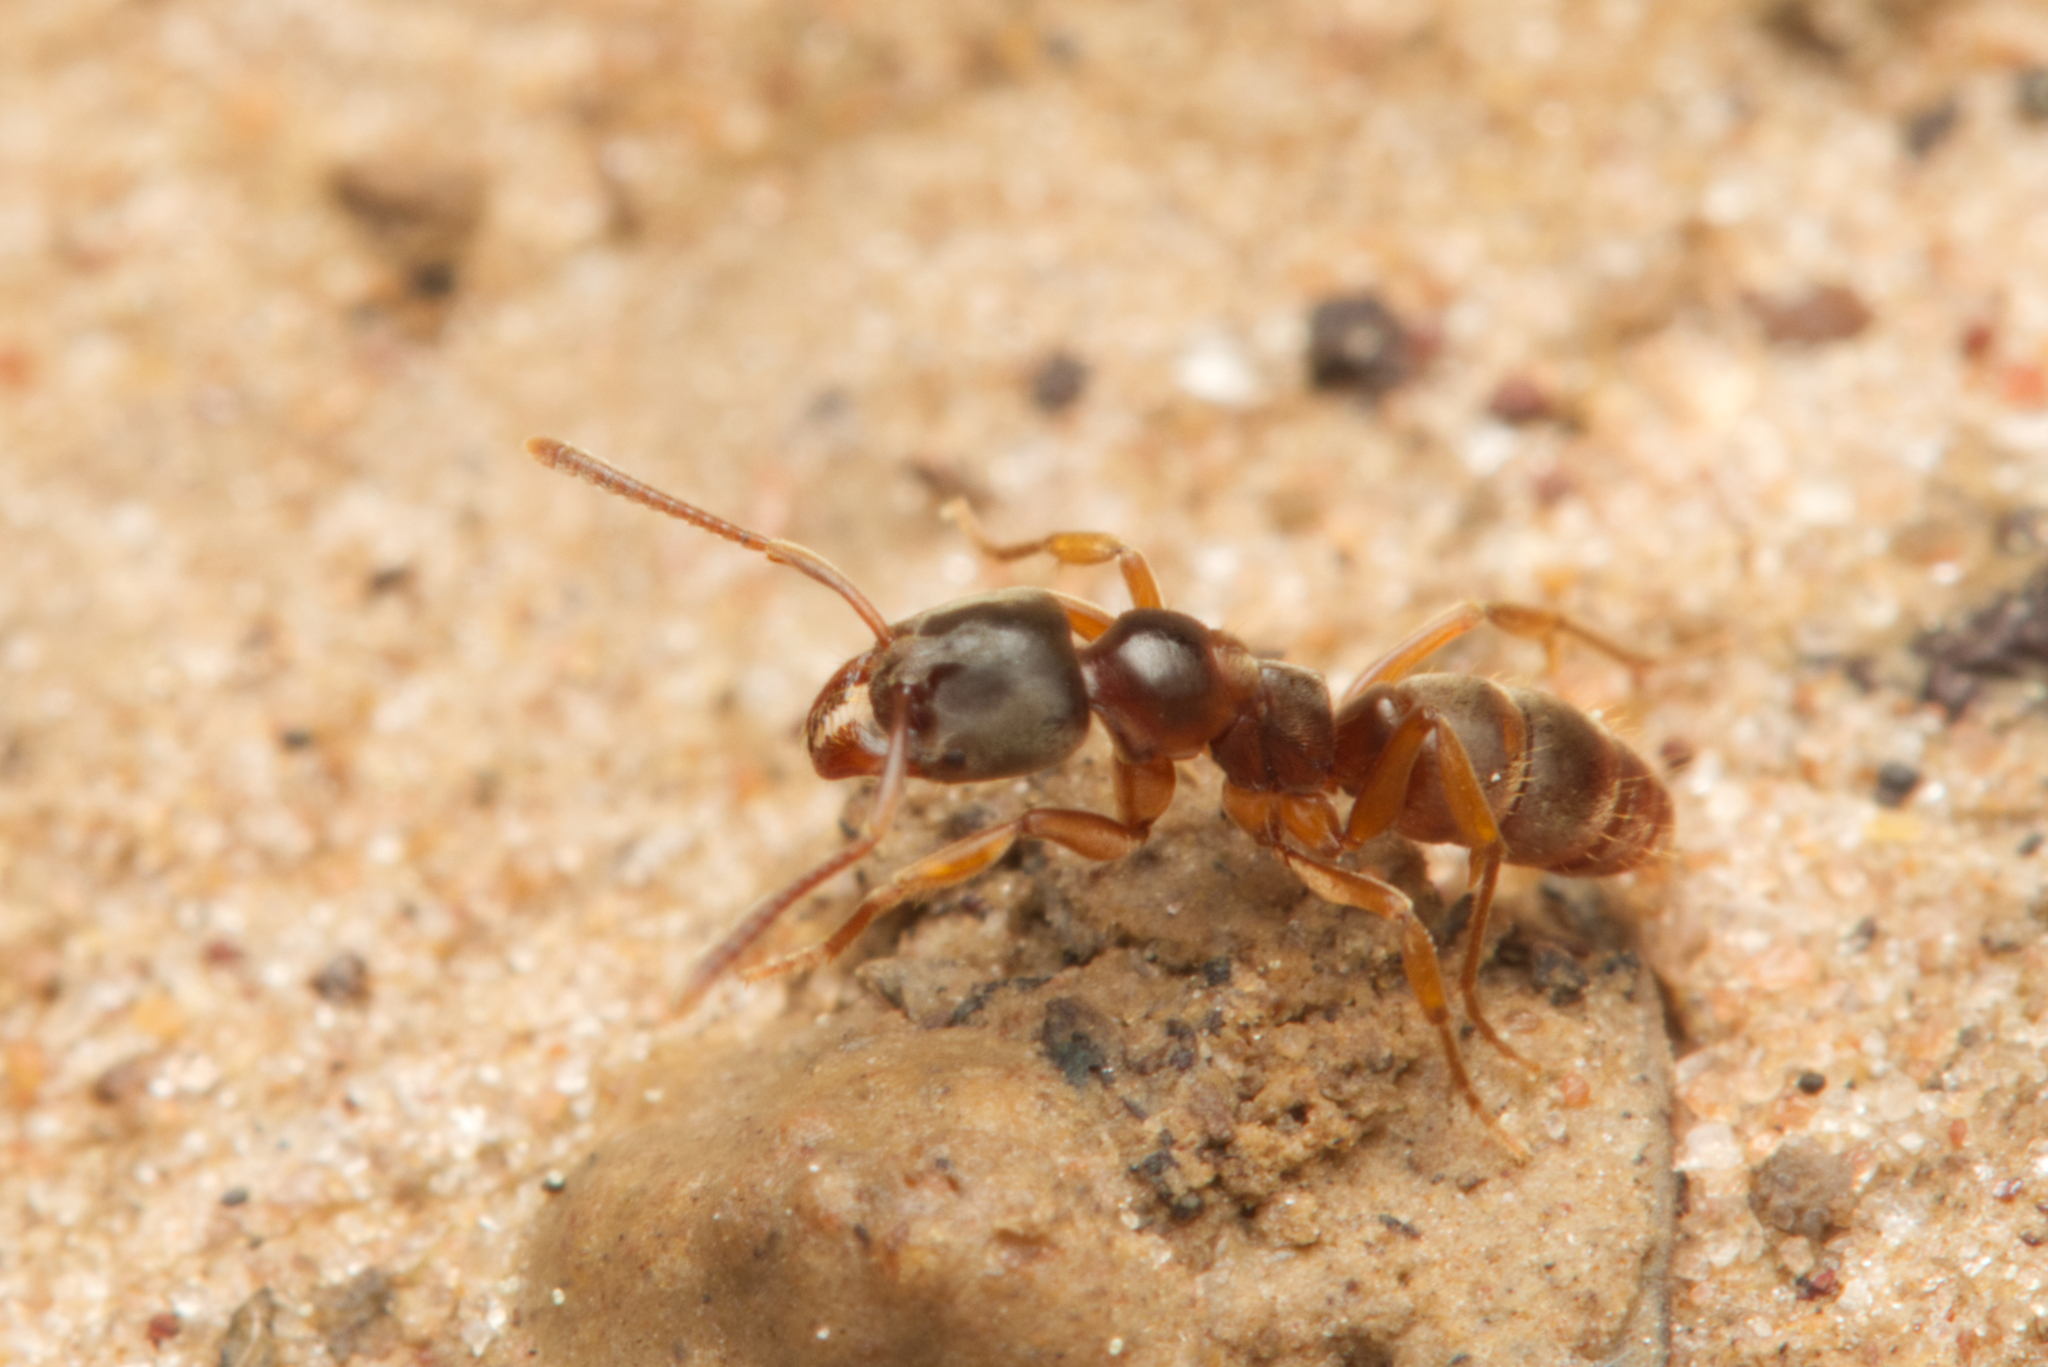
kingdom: Animalia
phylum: Arthropoda
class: Insecta
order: Hymenoptera
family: Formicidae
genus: Brachyponera
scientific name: Brachyponera
